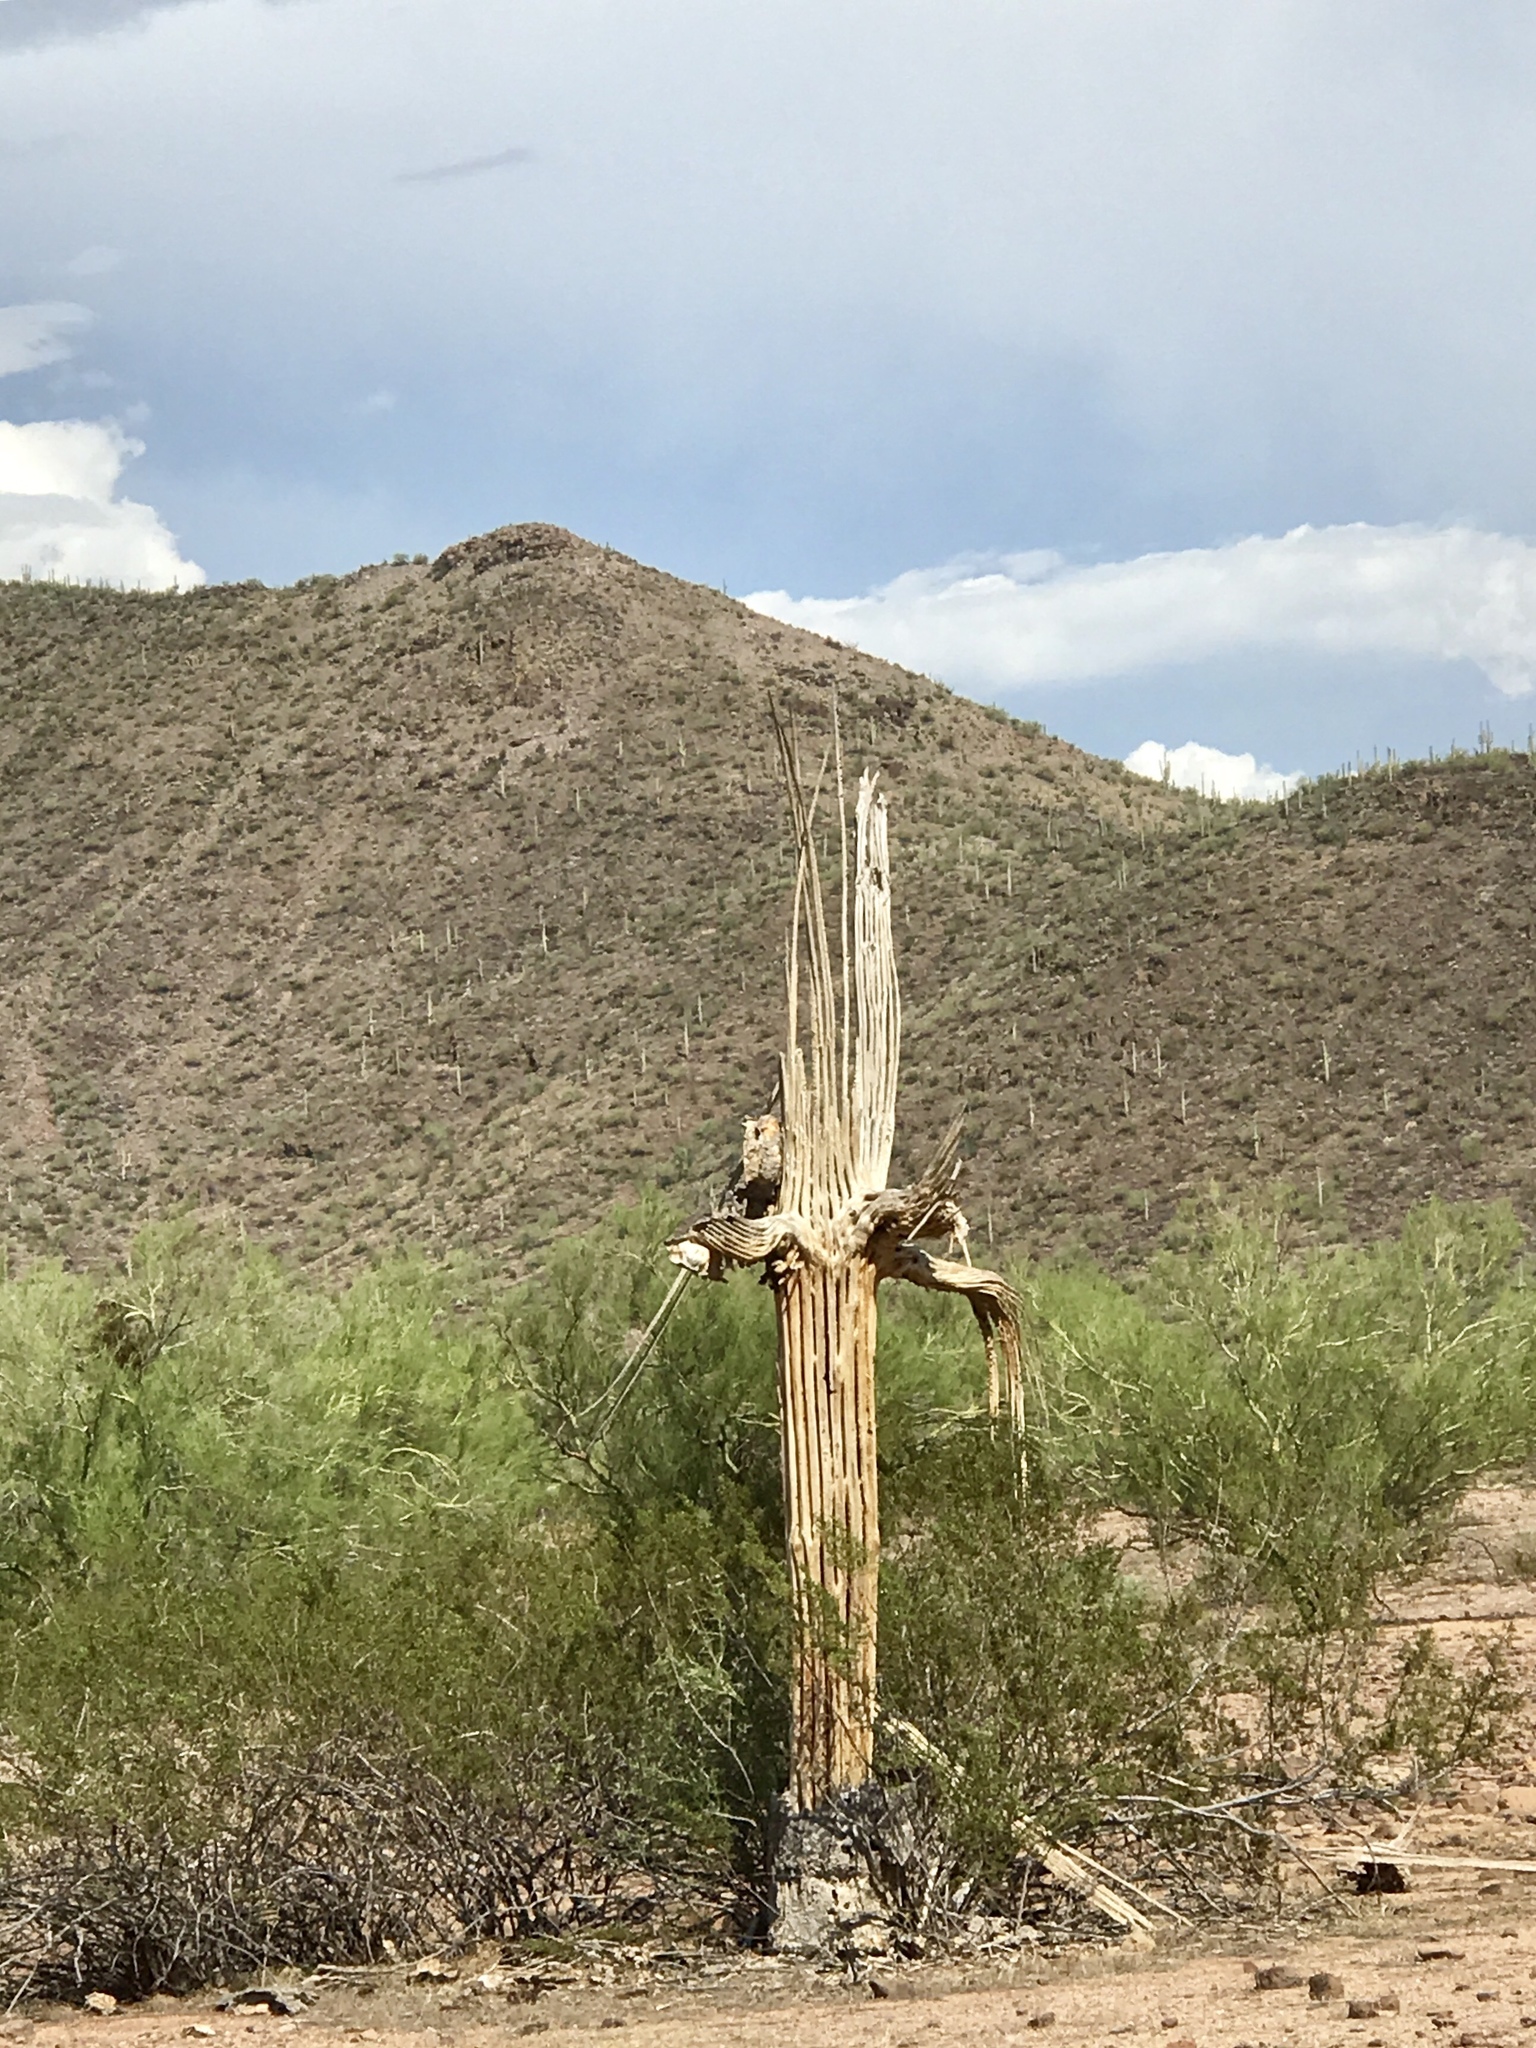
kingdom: Plantae
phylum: Tracheophyta
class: Magnoliopsida
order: Caryophyllales
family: Cactaceae
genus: Carnegiea
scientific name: Carnegiea gigantea
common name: Saguaro
